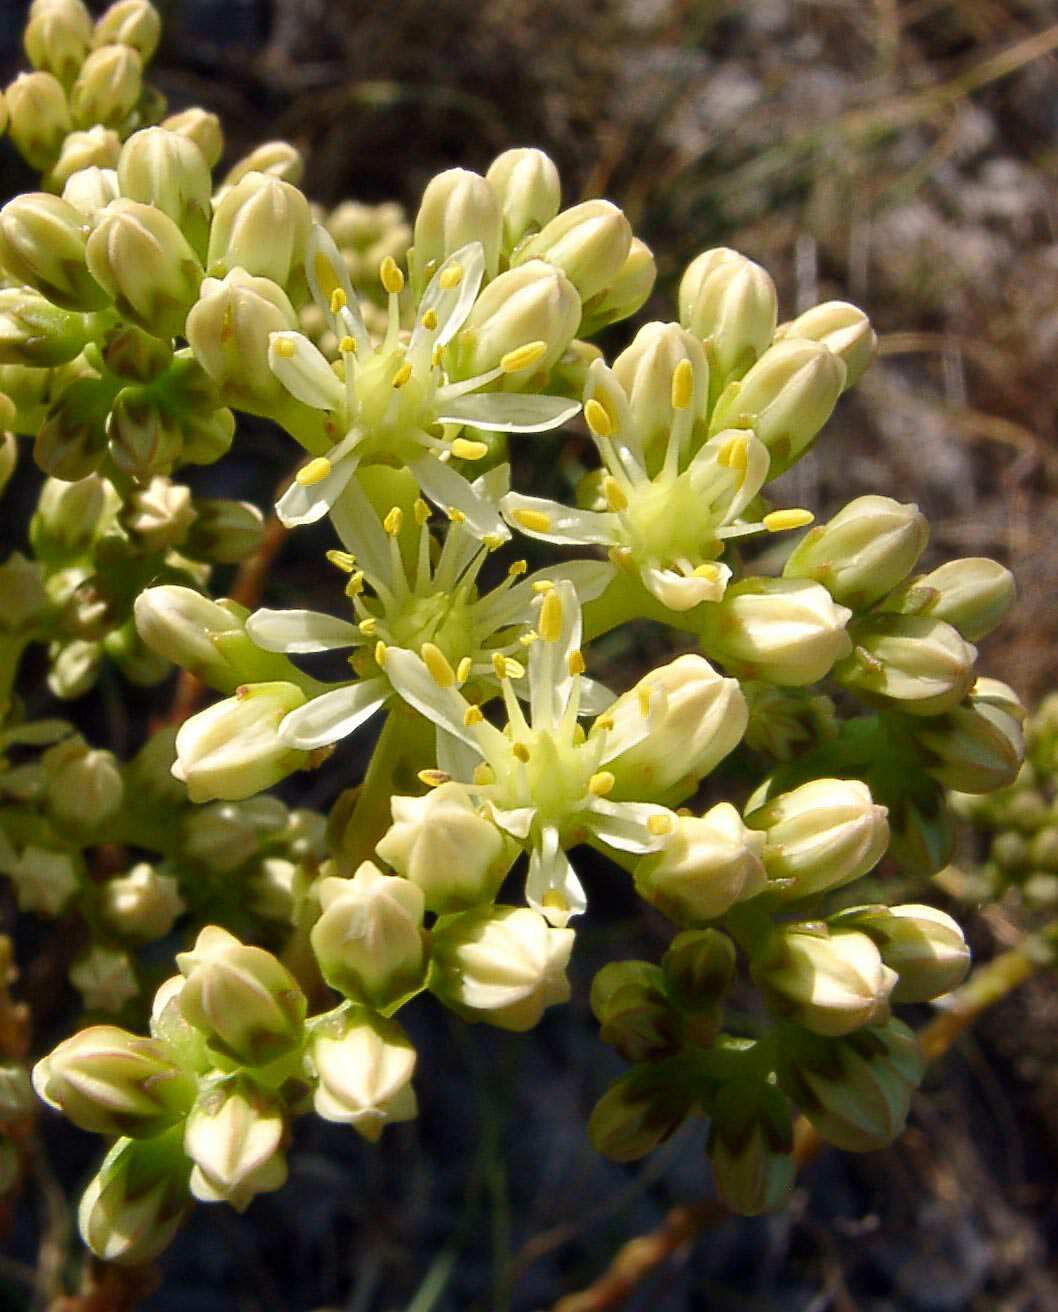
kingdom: Plantae
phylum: Tracheophyta
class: Magnoliopsida
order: Saxifragales
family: Crassulaceae
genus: Petrosedum
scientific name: Petrosedum sediforme
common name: Pale stonecrop
